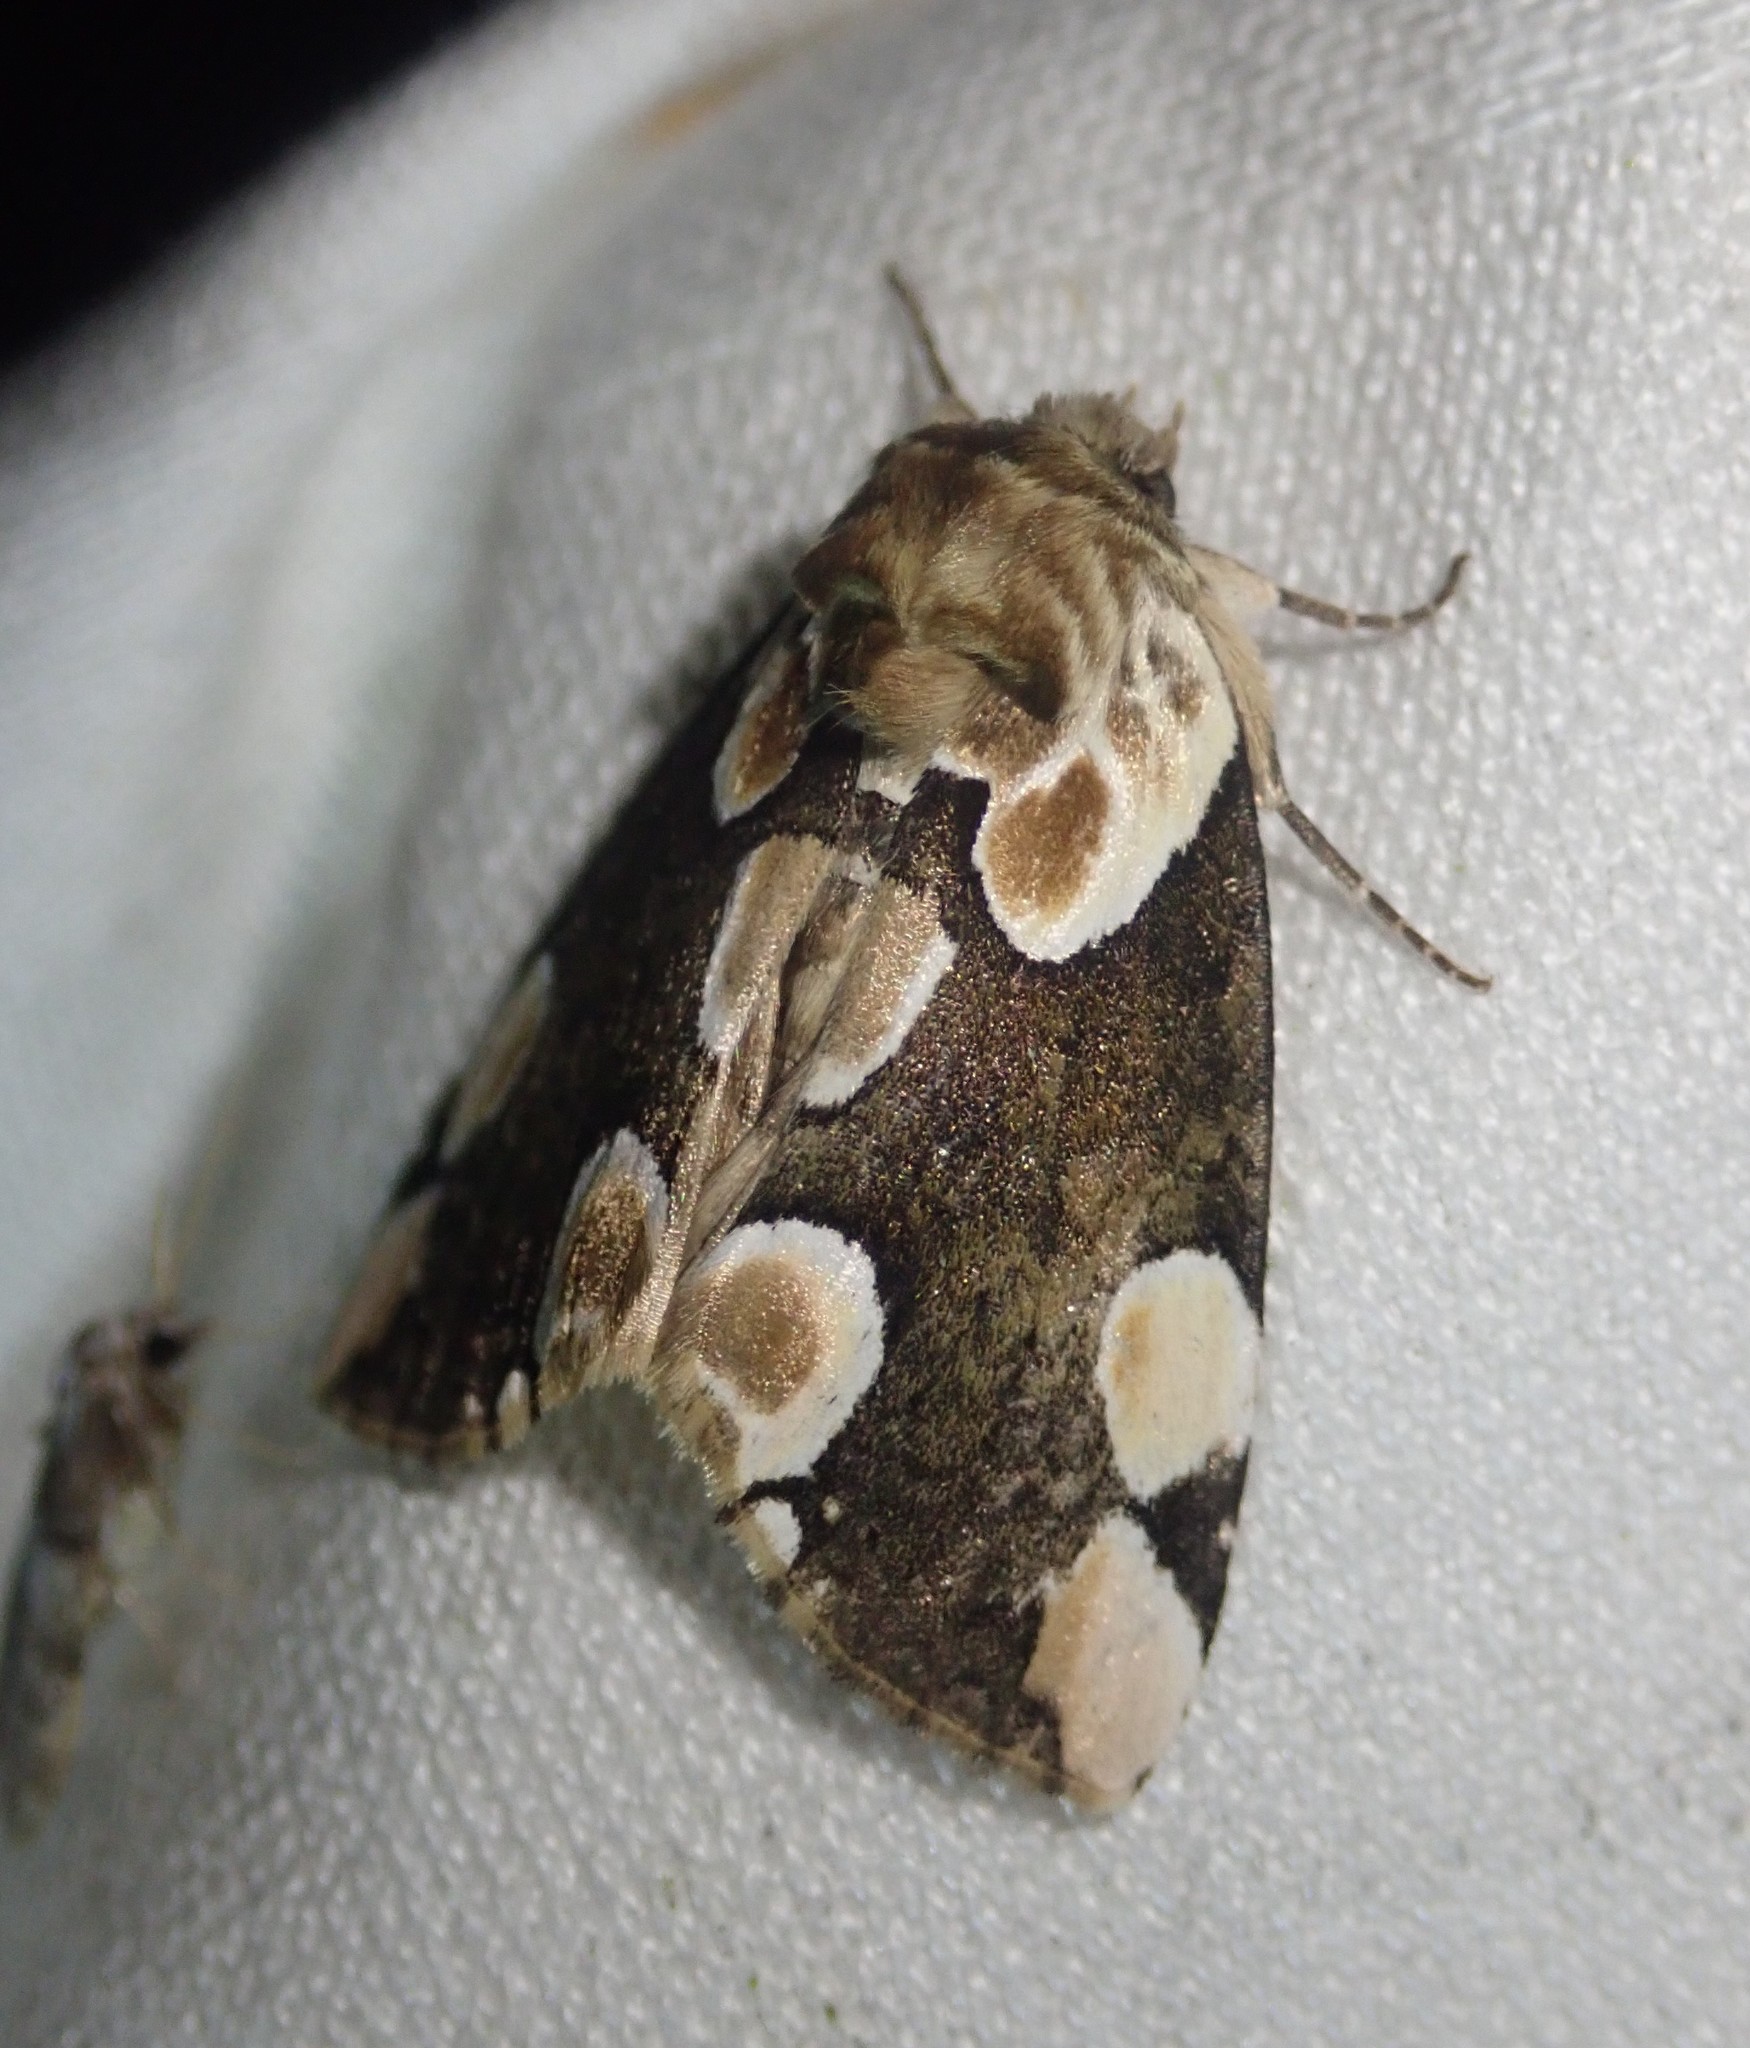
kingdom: Animalia
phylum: Arthropoda
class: Insecta
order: Lepidoptera
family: Drepanidae
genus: Thyatira
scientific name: Thyatira batis
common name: Peach blossom
